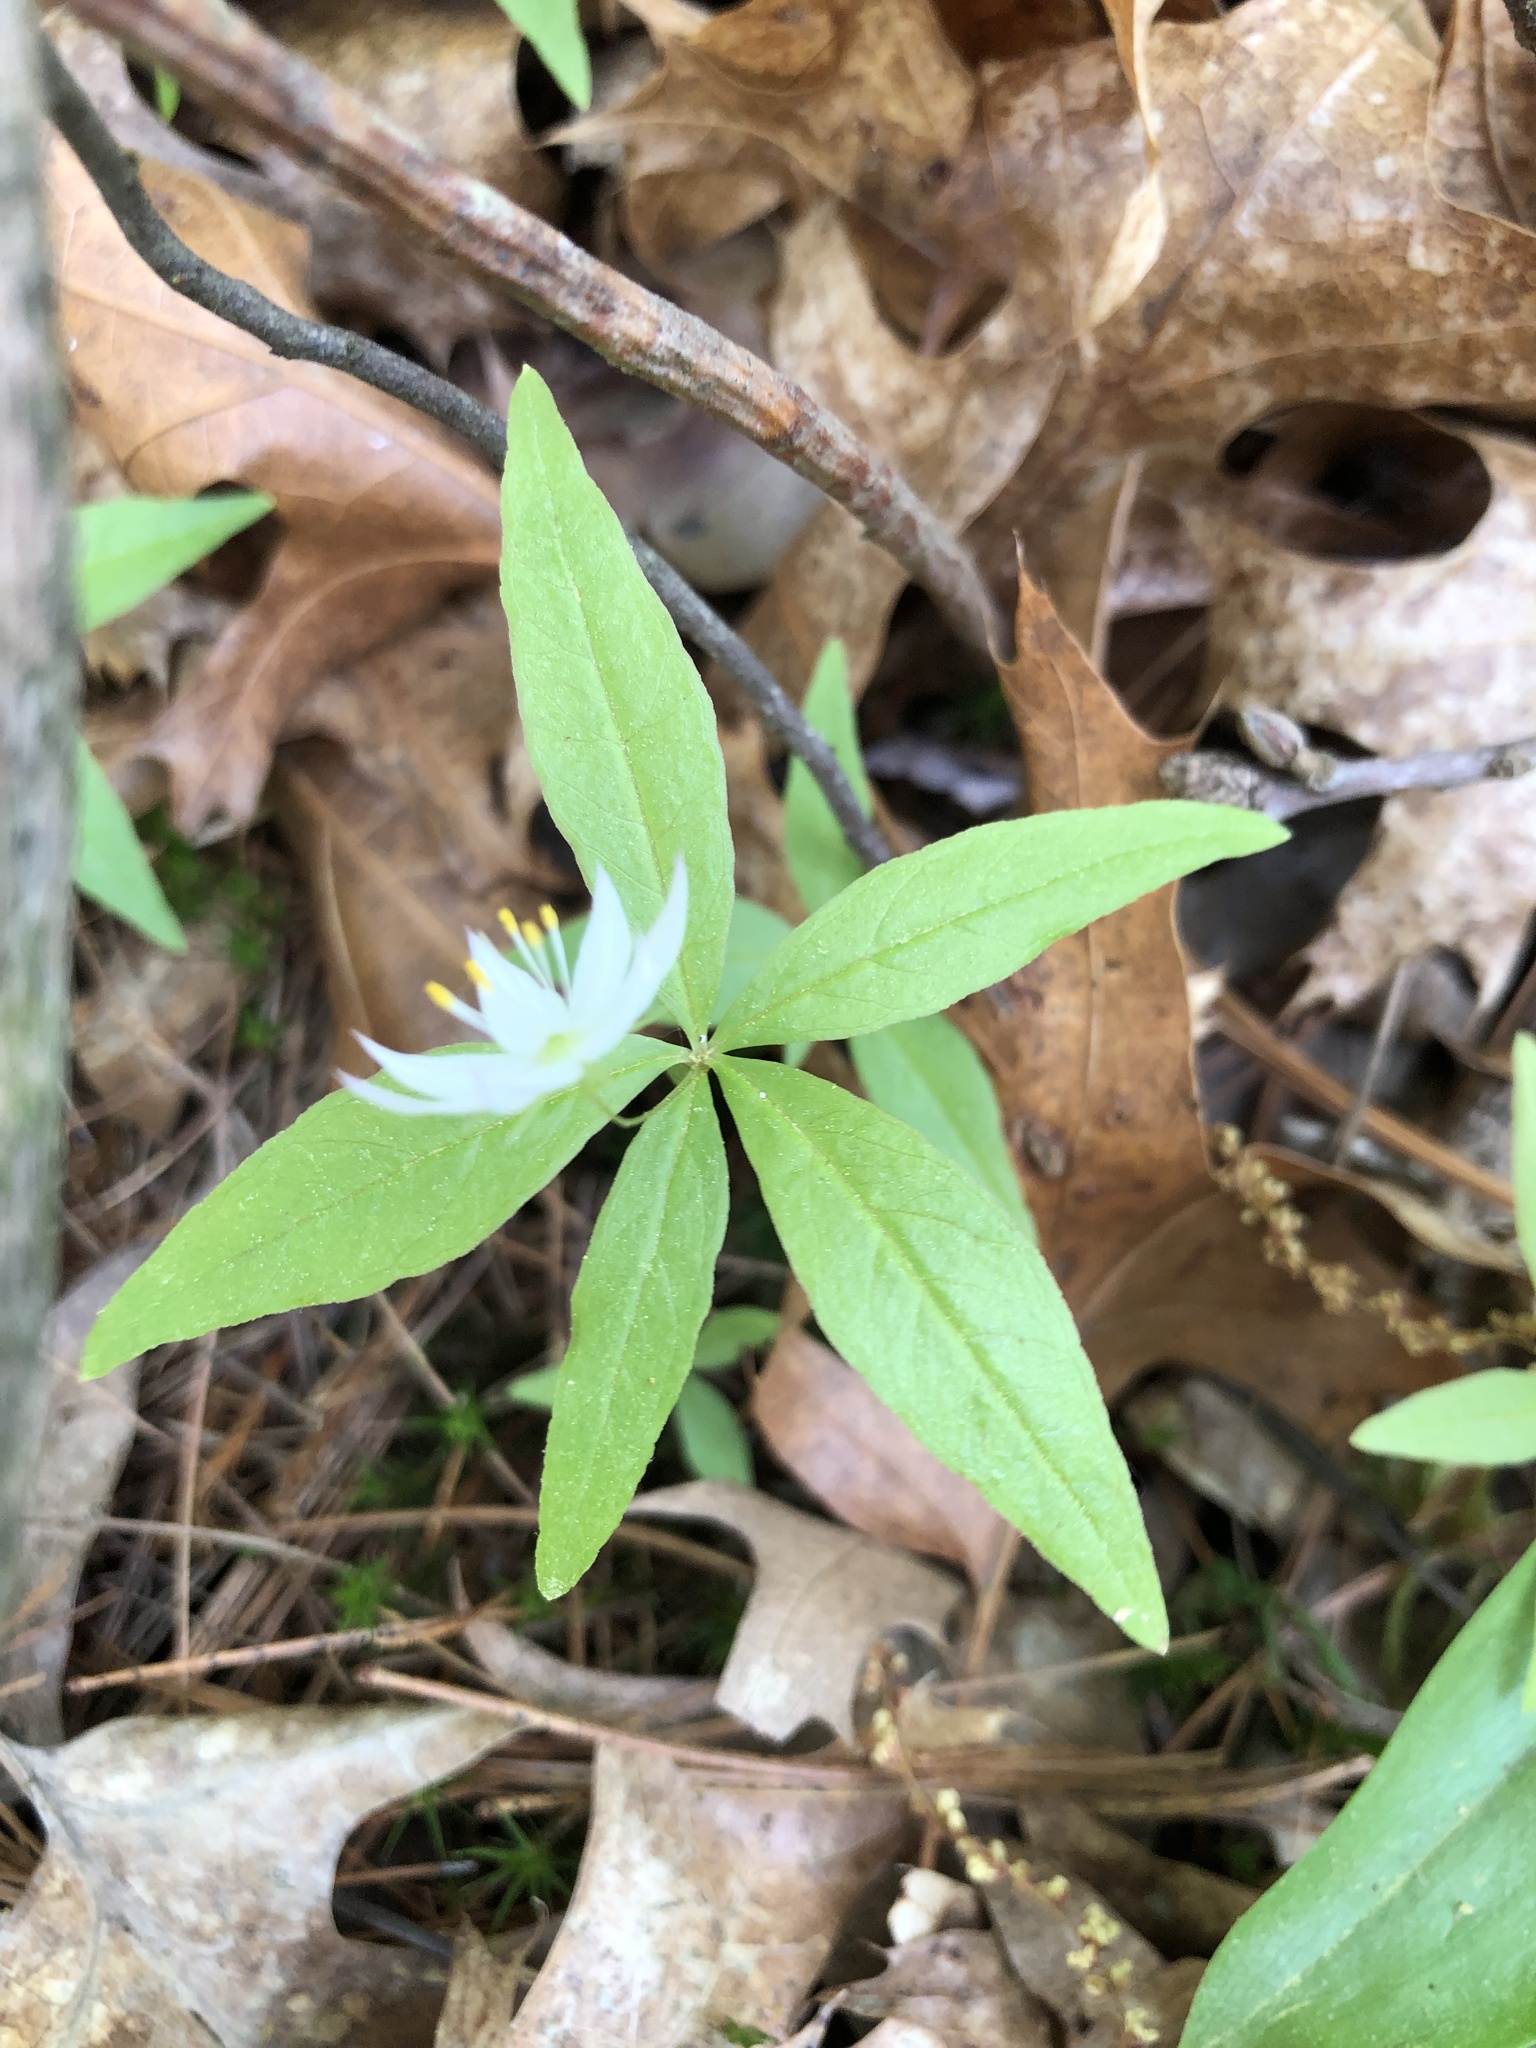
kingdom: Plantae
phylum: Tracheophyta
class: Magnoliopsida
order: Ericales
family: Primulaceae
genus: Lysimachia
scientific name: Lysimachia borealis
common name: American starflower
